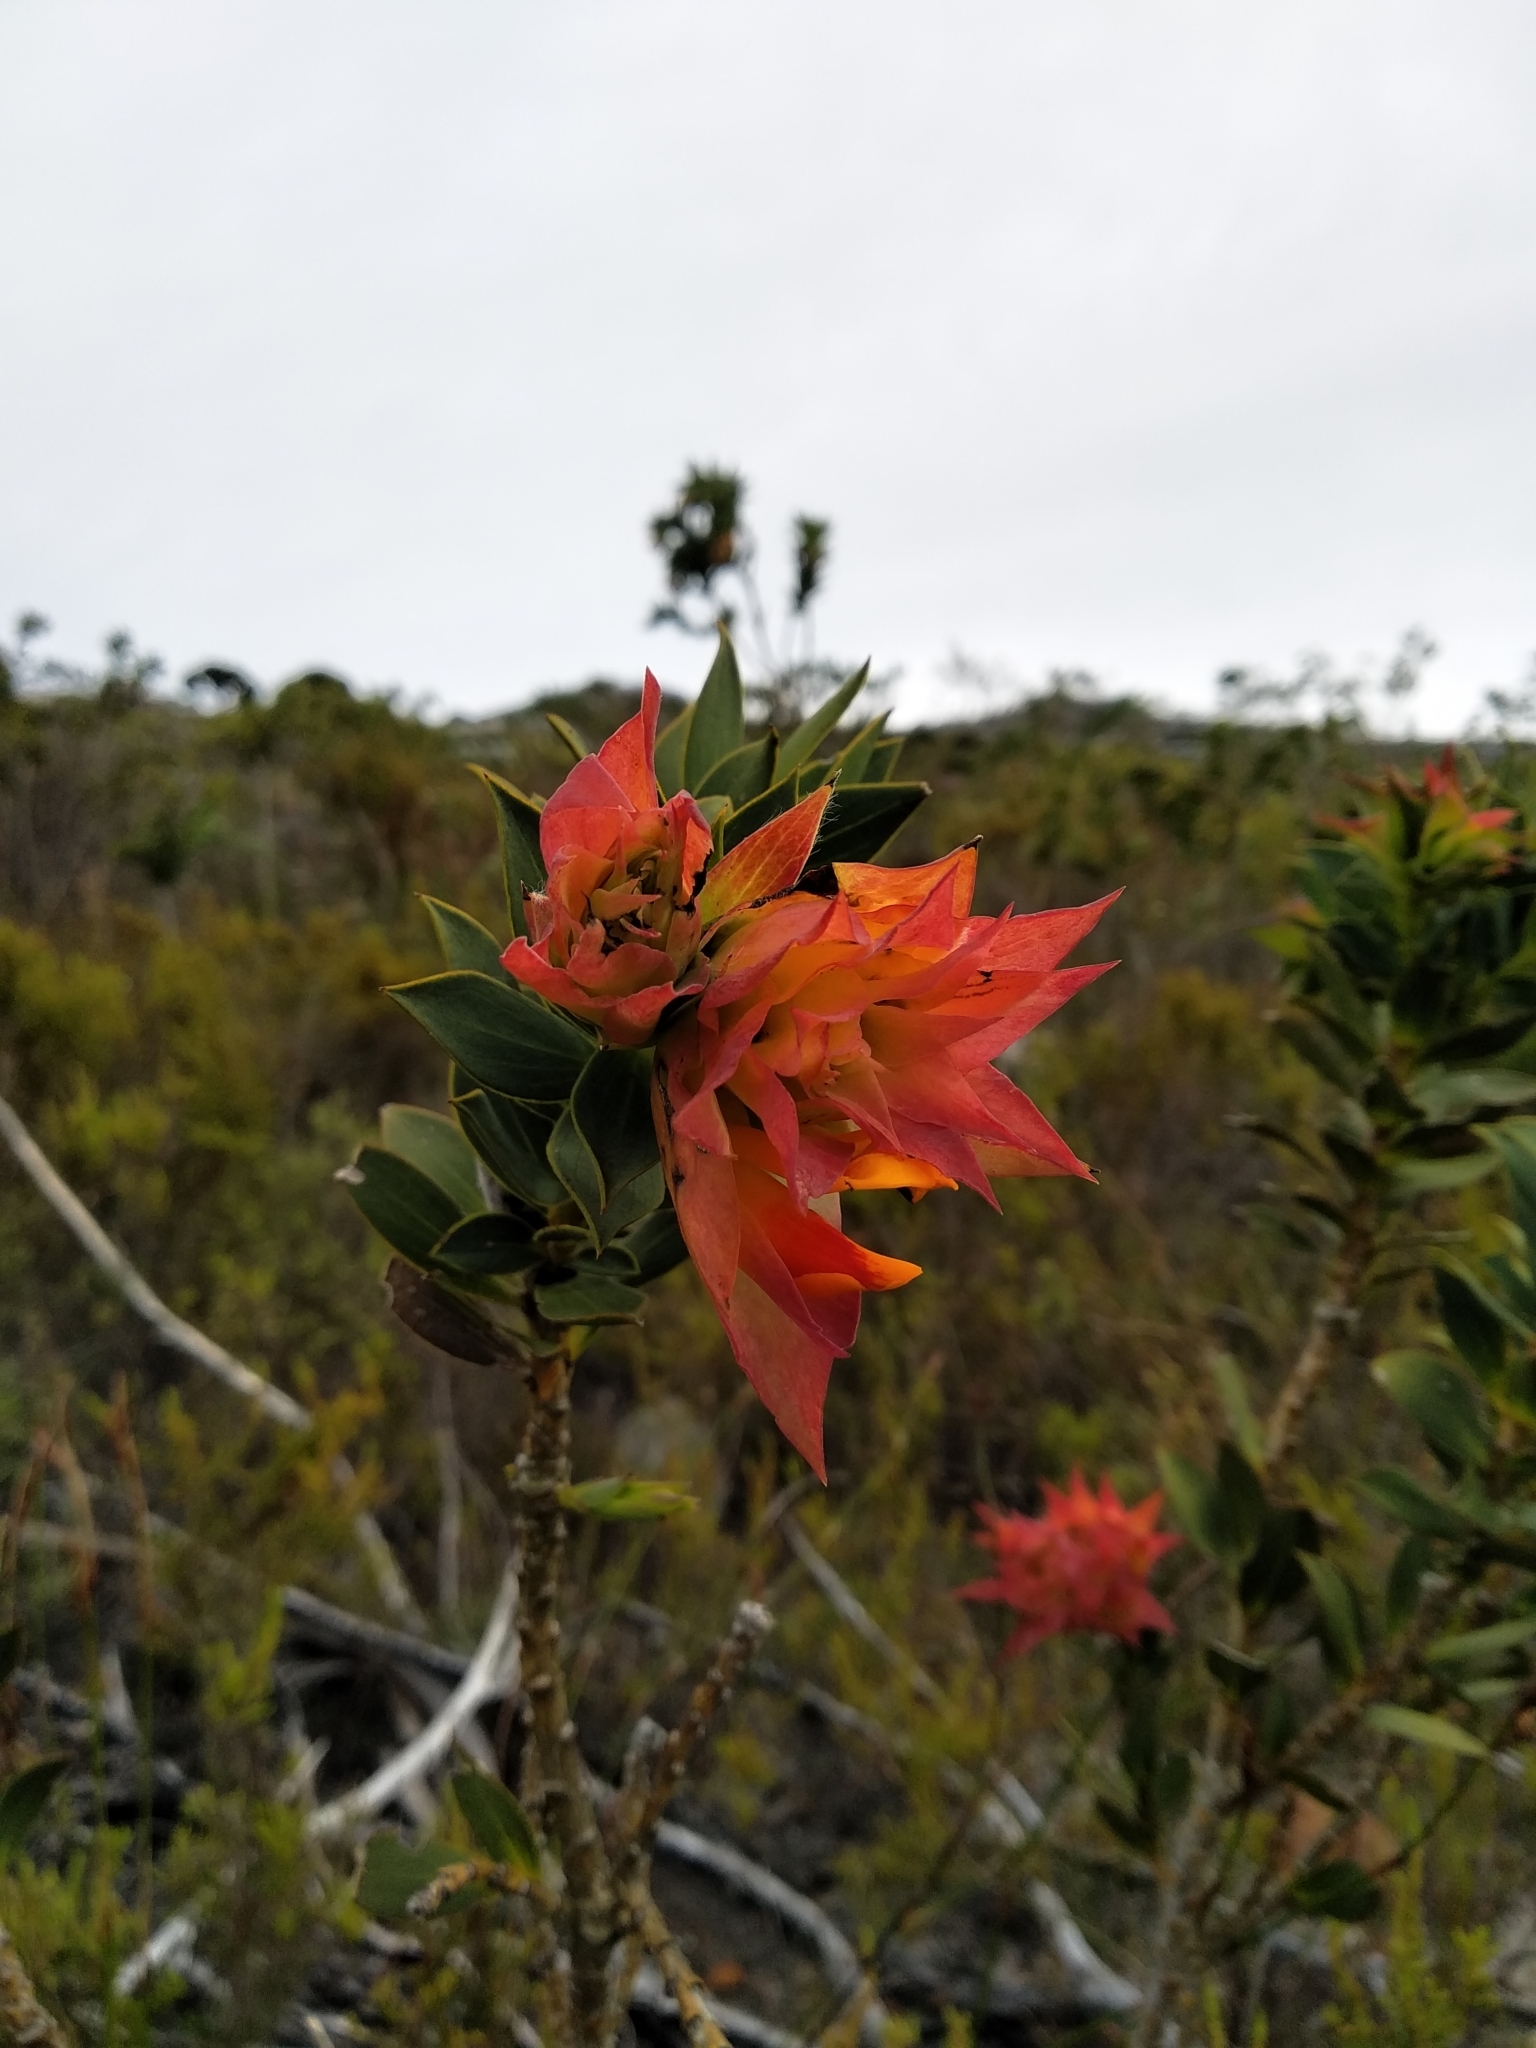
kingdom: Plantae
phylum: Tracheophyta
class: Magnoliopsida
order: Fabales
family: Fabaceae
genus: Liparia
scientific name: Liparia splendens
